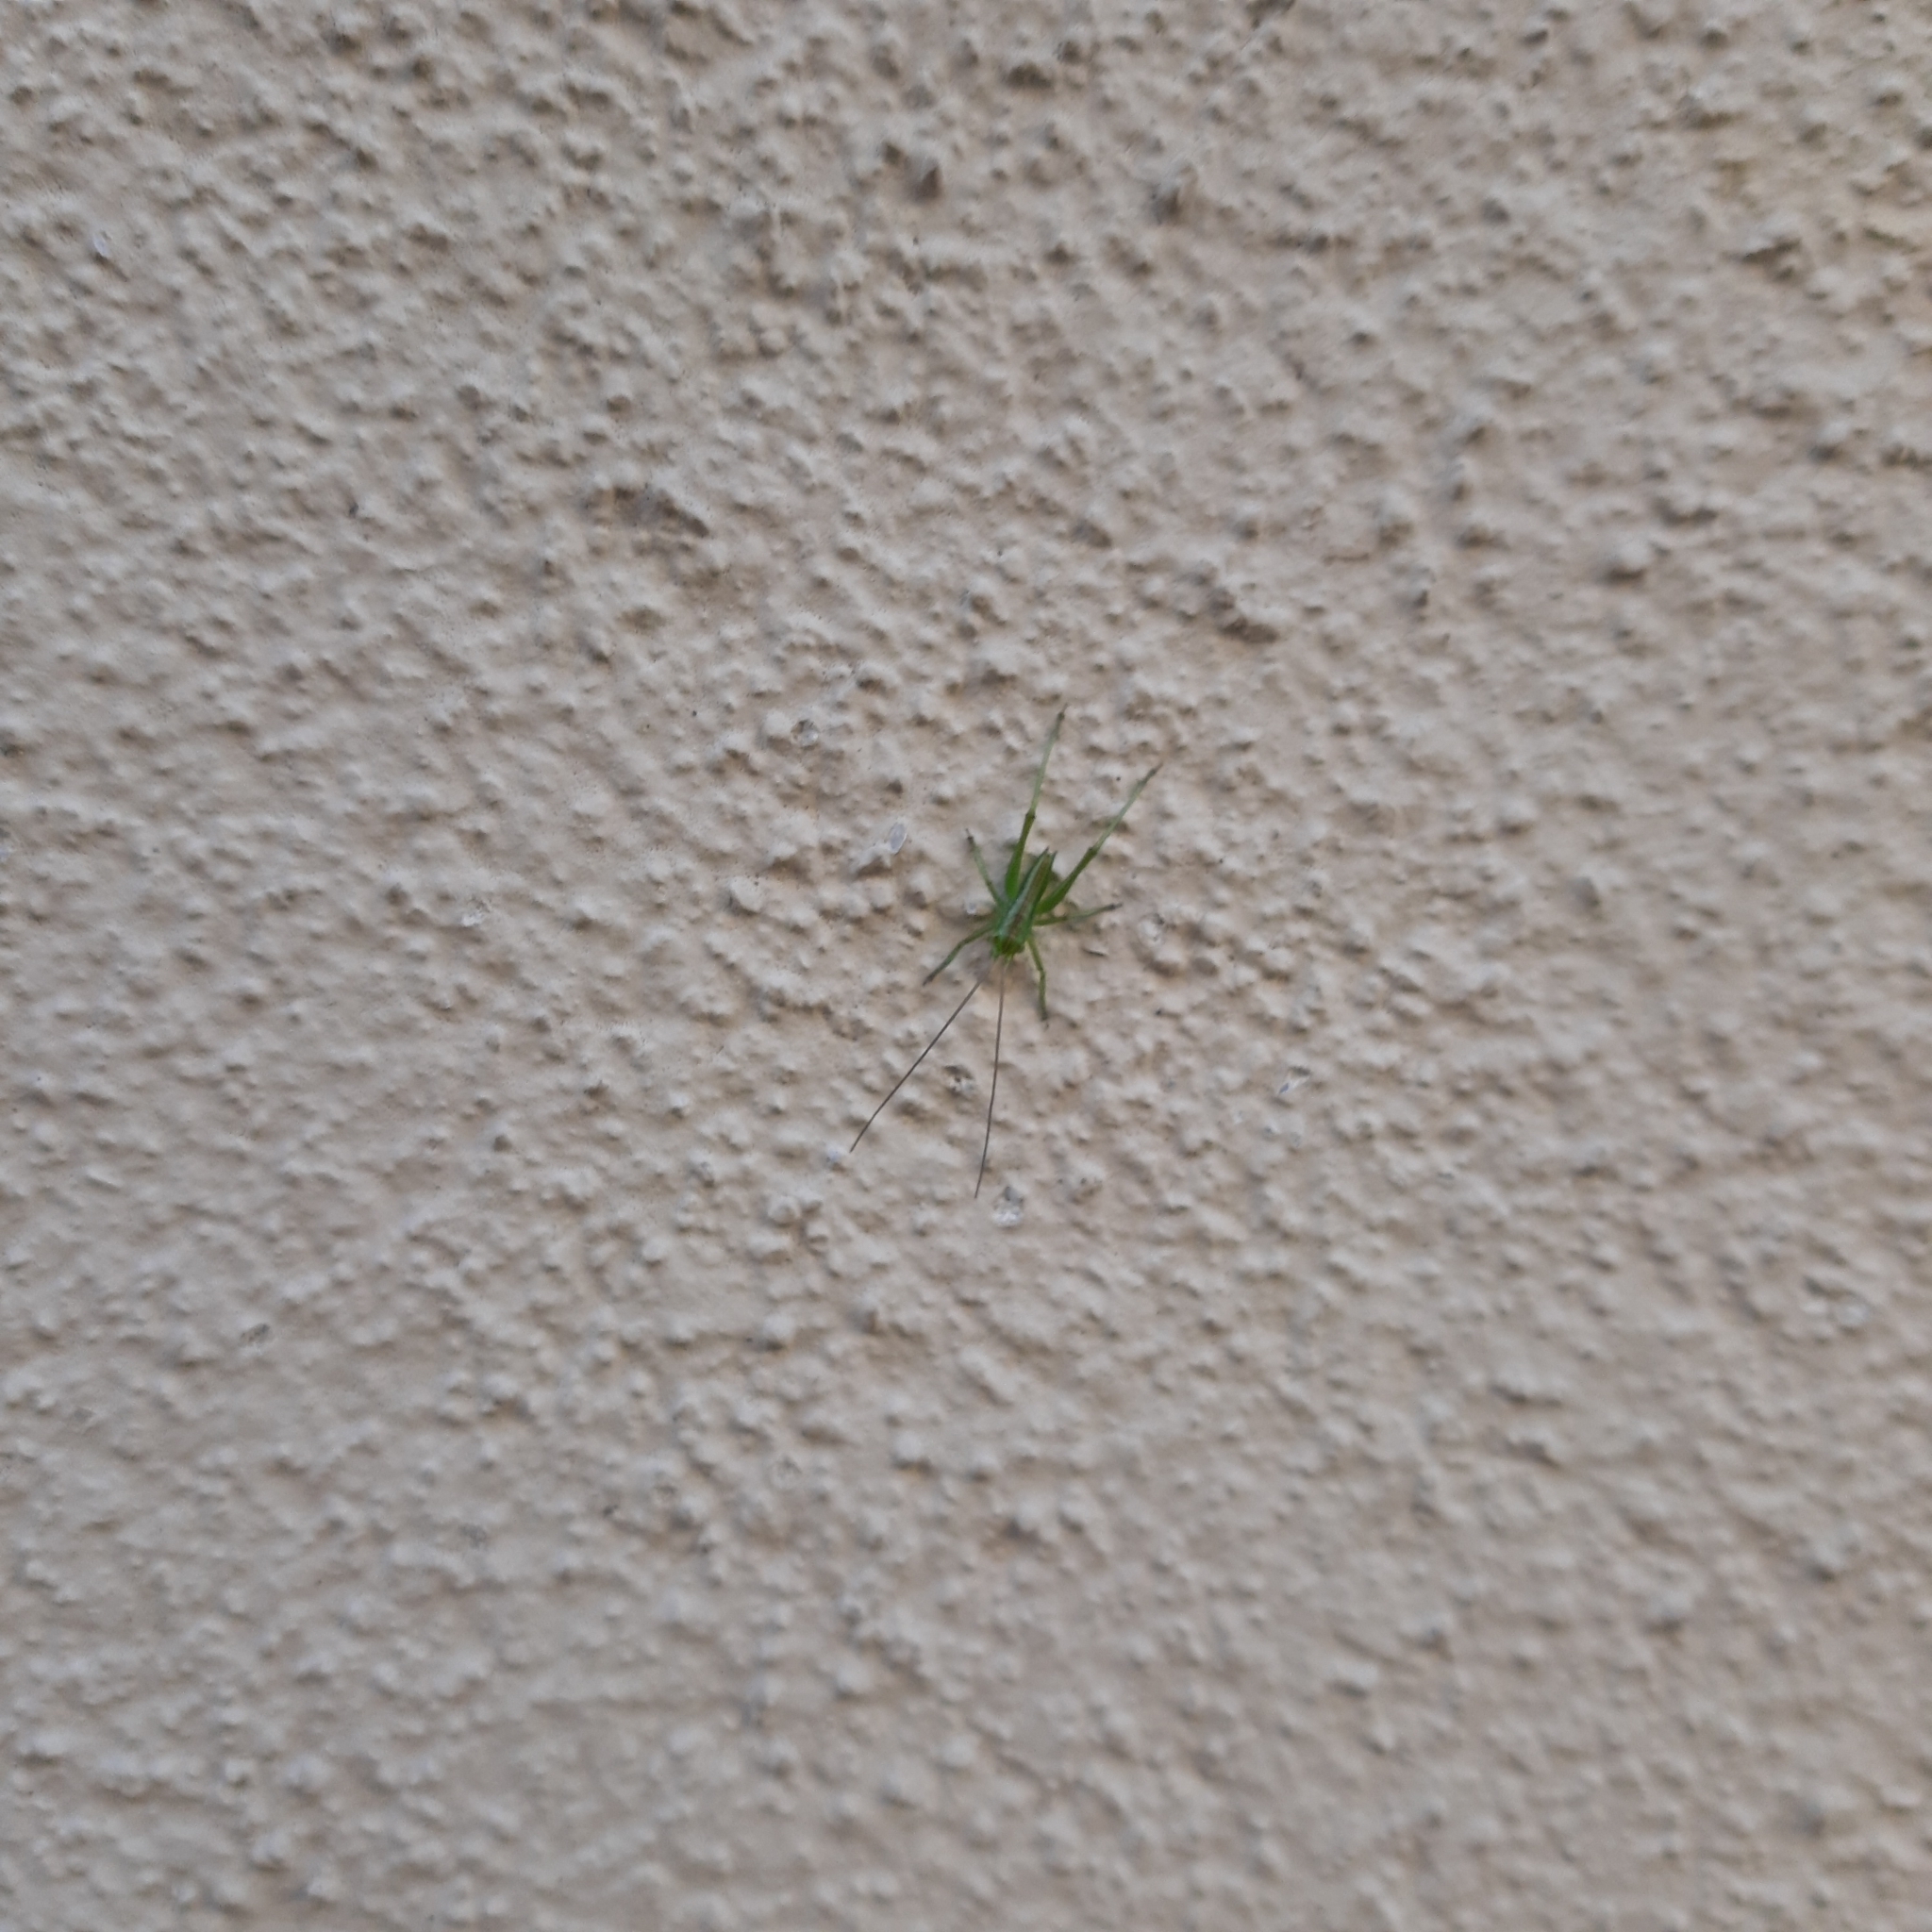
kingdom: Animalia
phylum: Arthropoda
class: Insecta
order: Orthoptera
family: Tettigoniidae
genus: Tettigonia
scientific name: Tettigonia viridissima
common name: Great green bush-cricket
